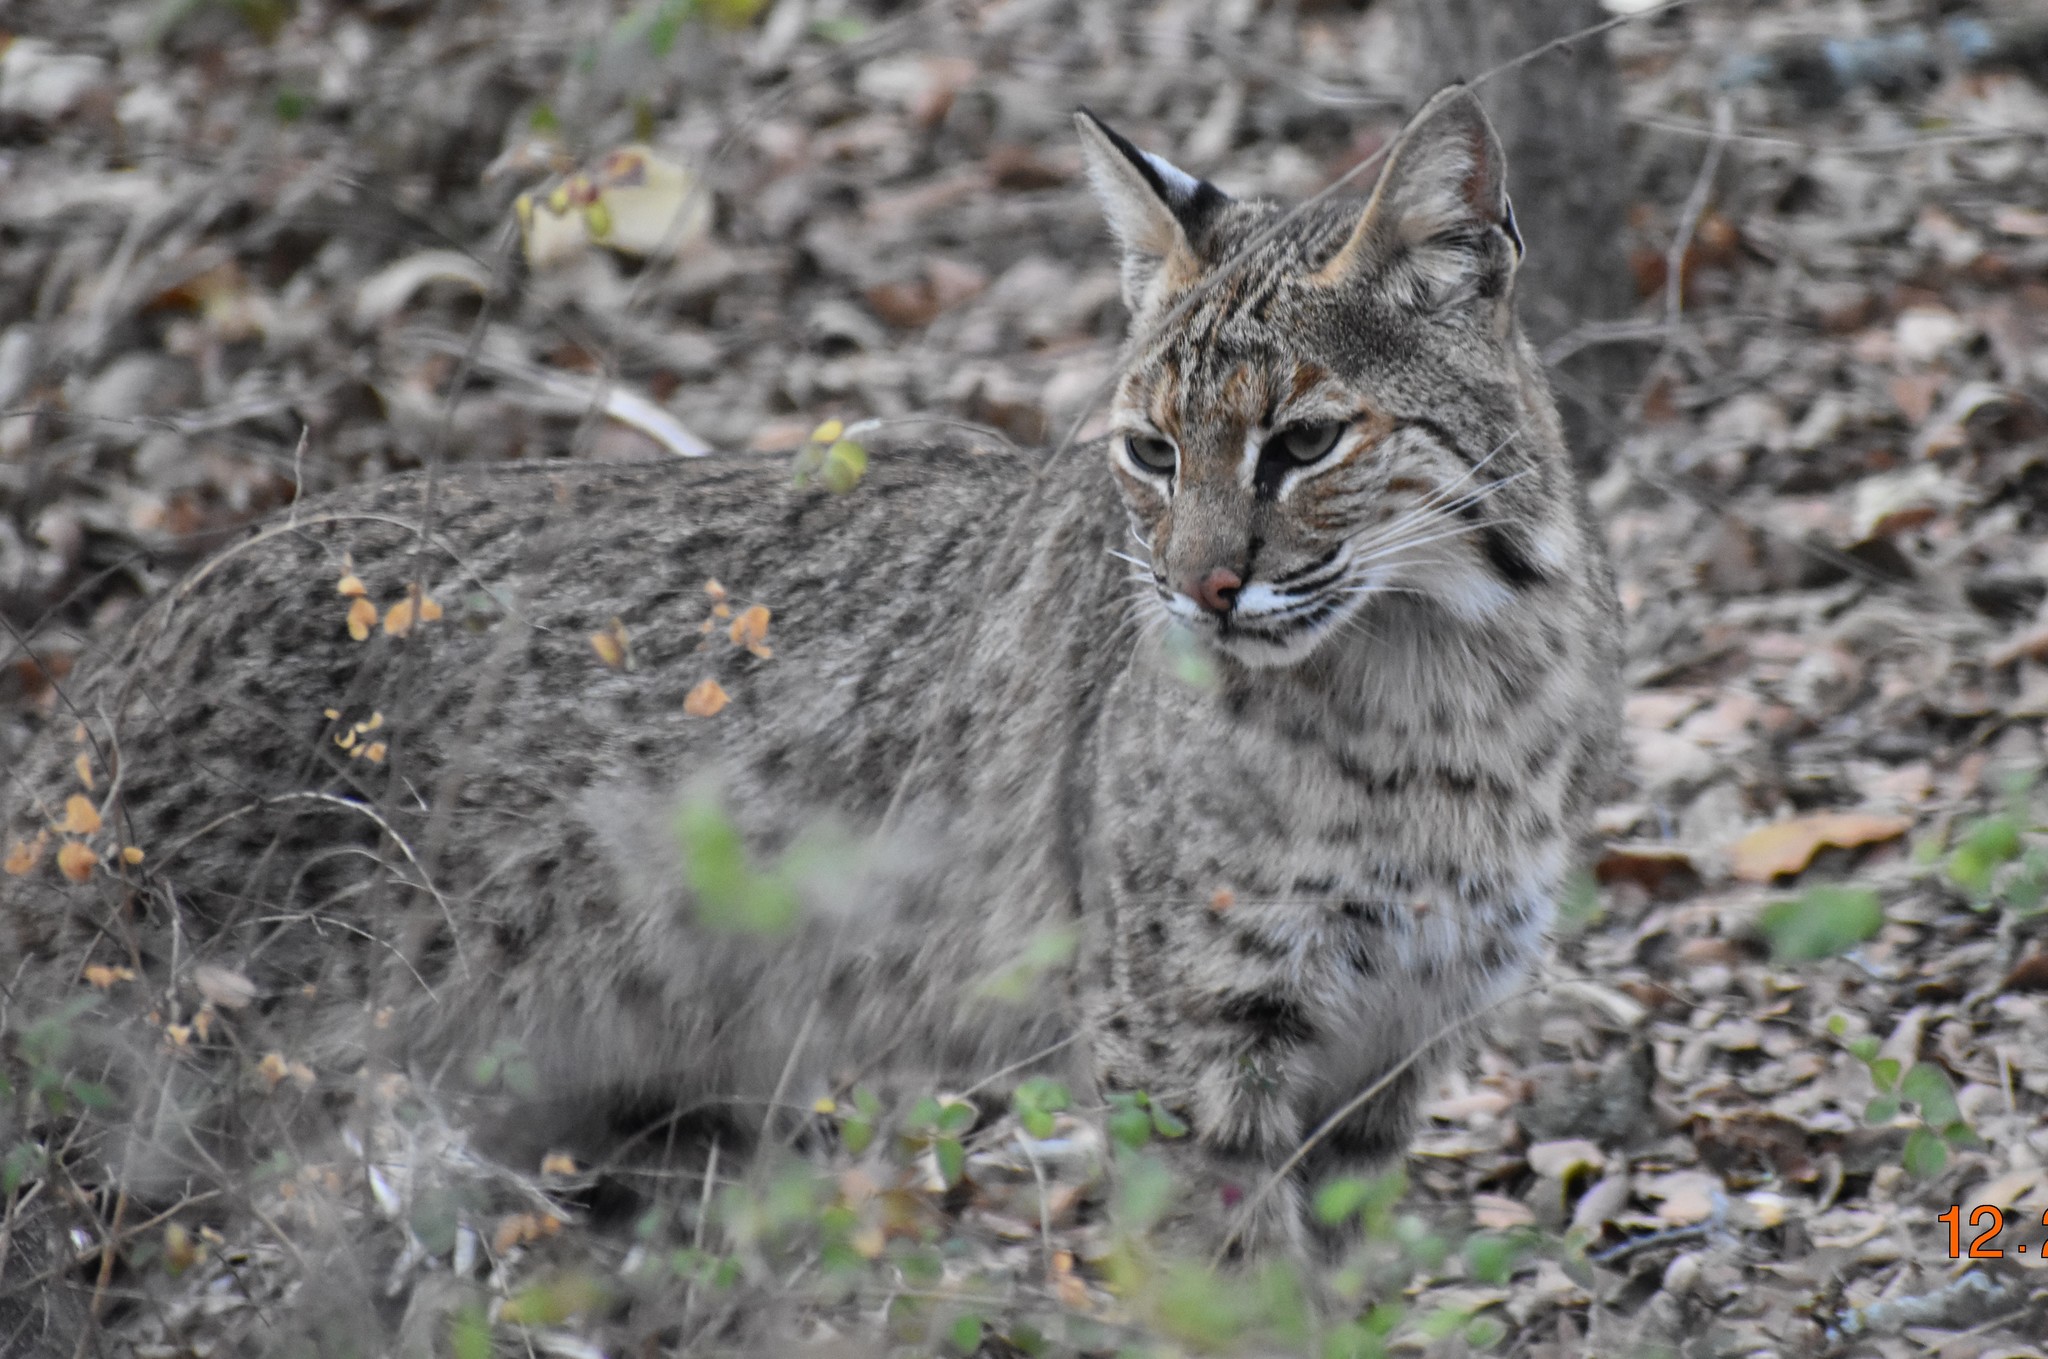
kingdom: Animalia
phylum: Chordata
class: Mammalia
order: Carnivora
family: Felidae
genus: Lynx
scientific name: Lynx rufus
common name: Bobcat
